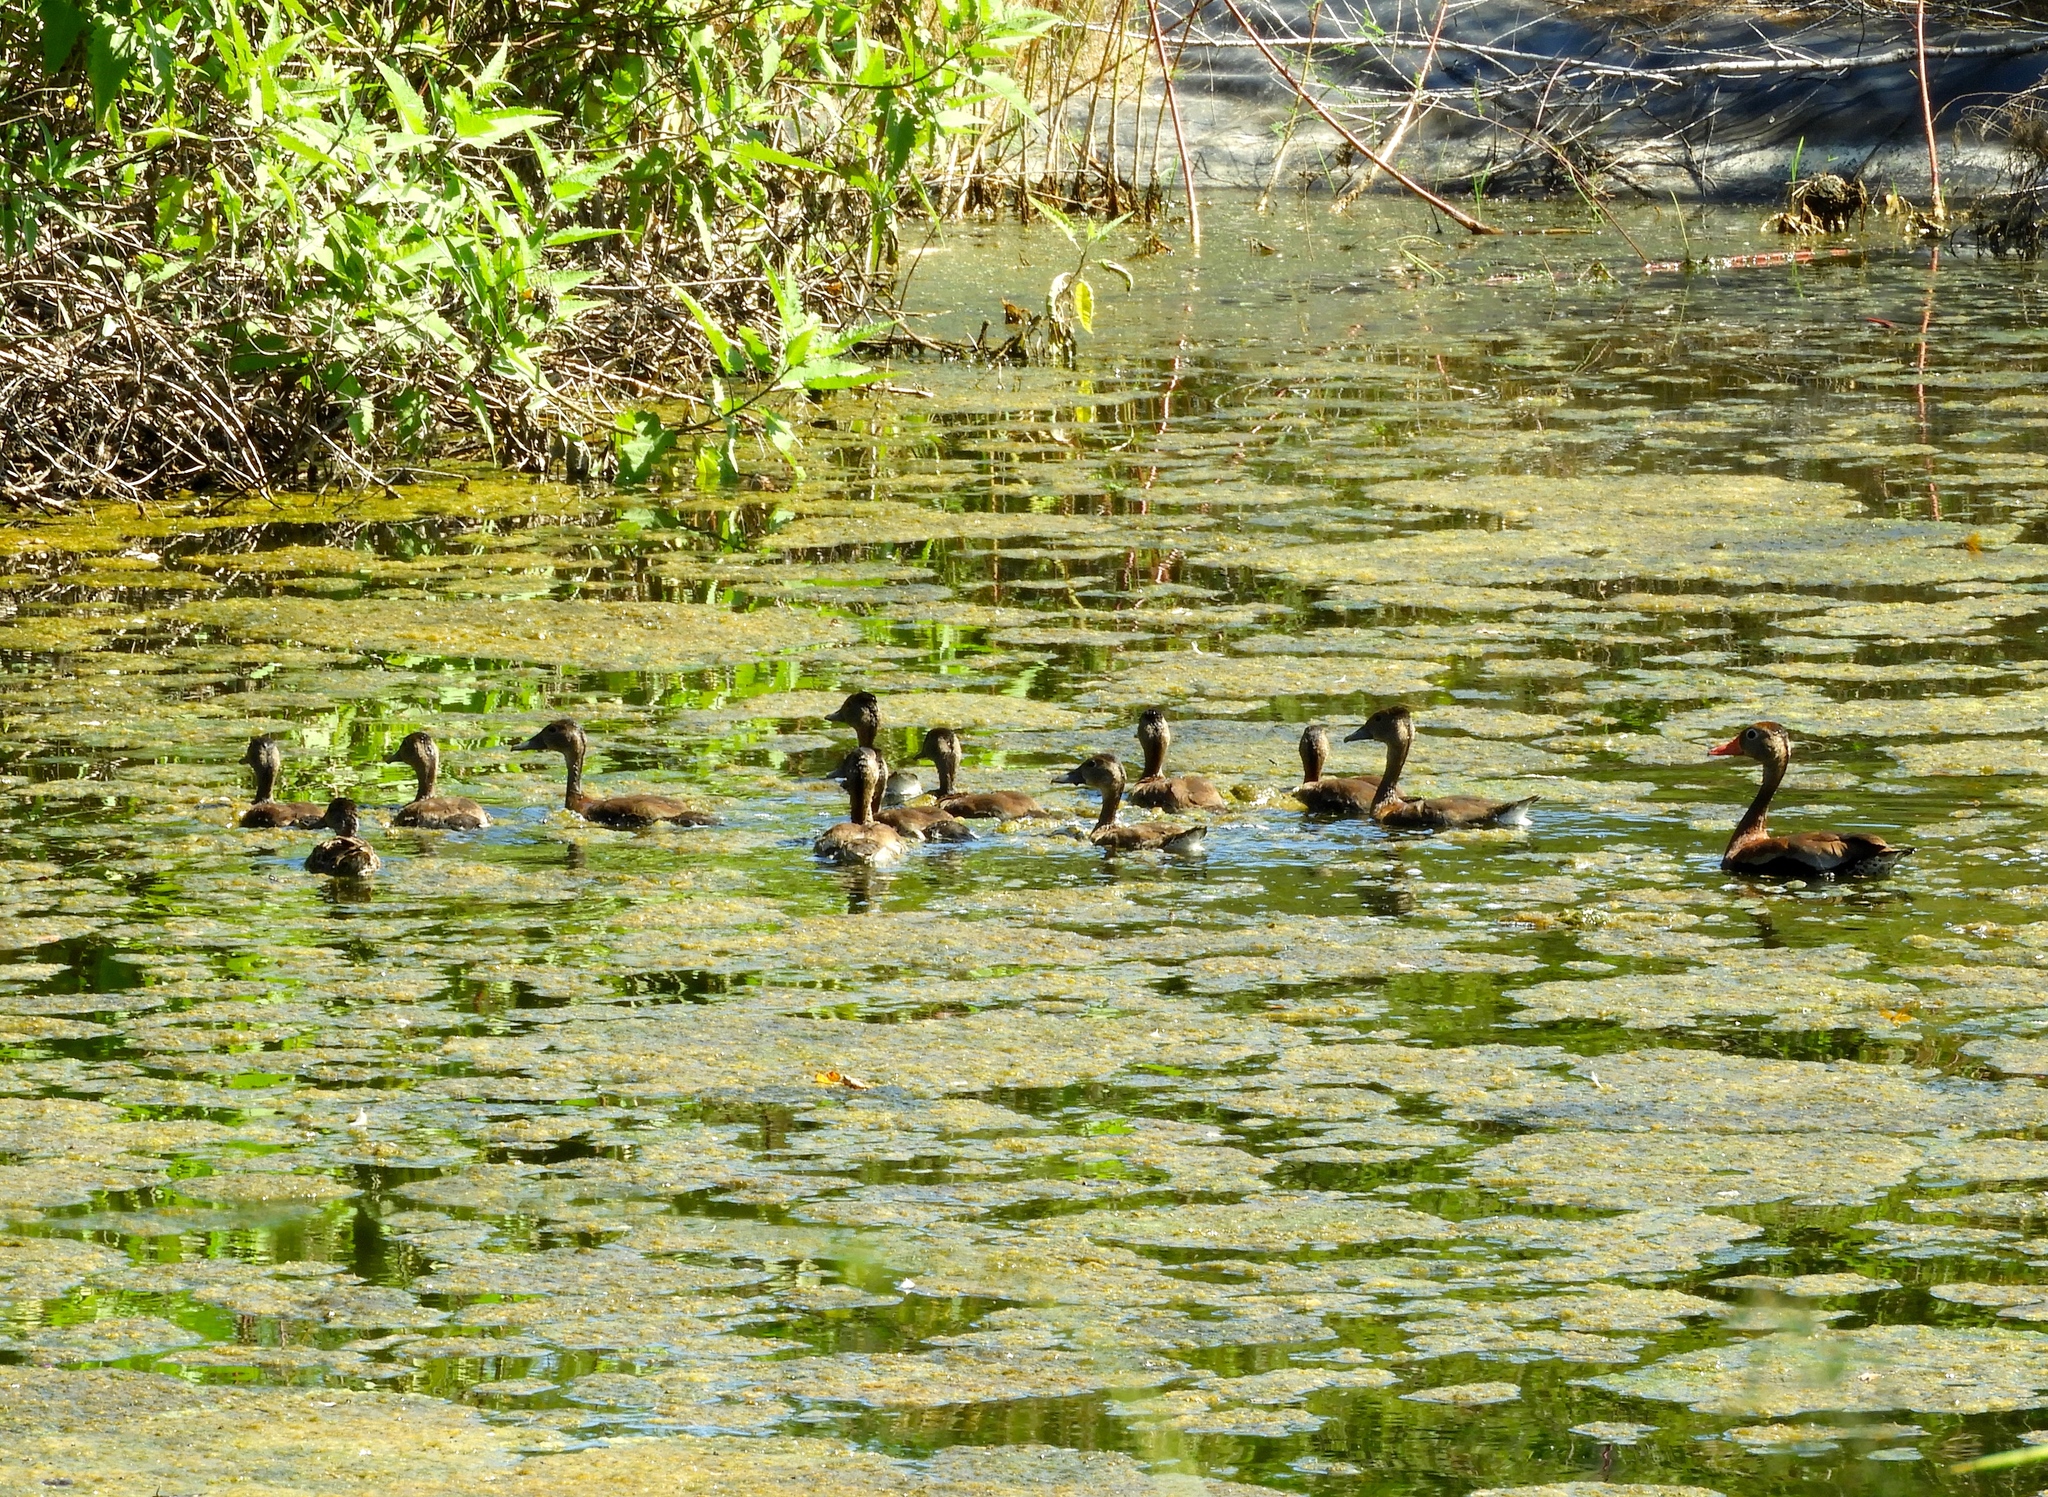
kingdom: Animalia
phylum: Chordata
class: Aves
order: Anseriformes
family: Anatidae
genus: Dendrocygna
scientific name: Dendrocygna autumnalis
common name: Black-bellied whistling duck
